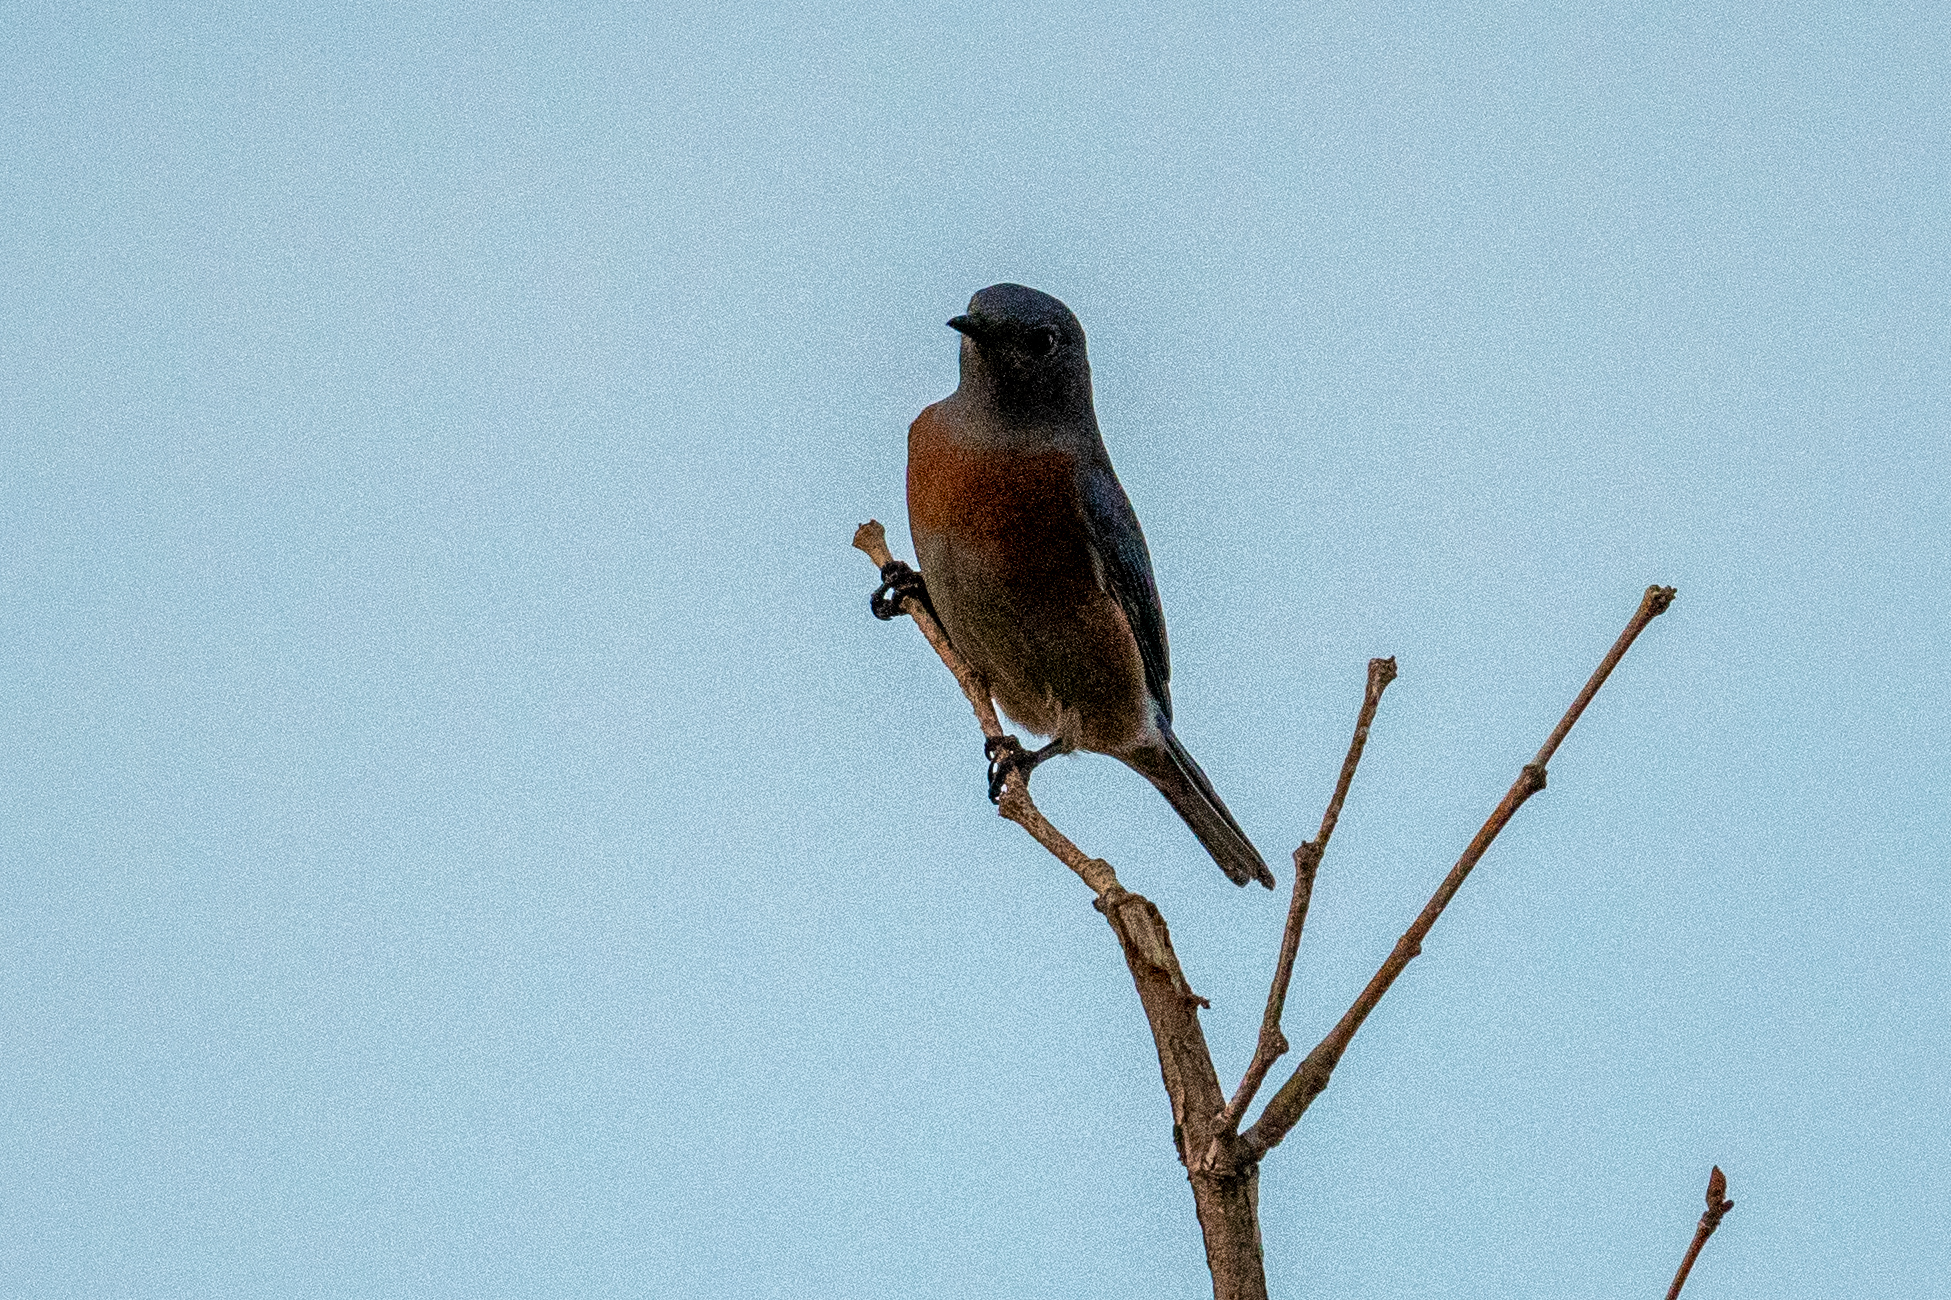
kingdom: Animalia
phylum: Chordata
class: Aves
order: Passeriformes
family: Turdidae
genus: Sialia
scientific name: Sialia mexicana
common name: Western bluebird
